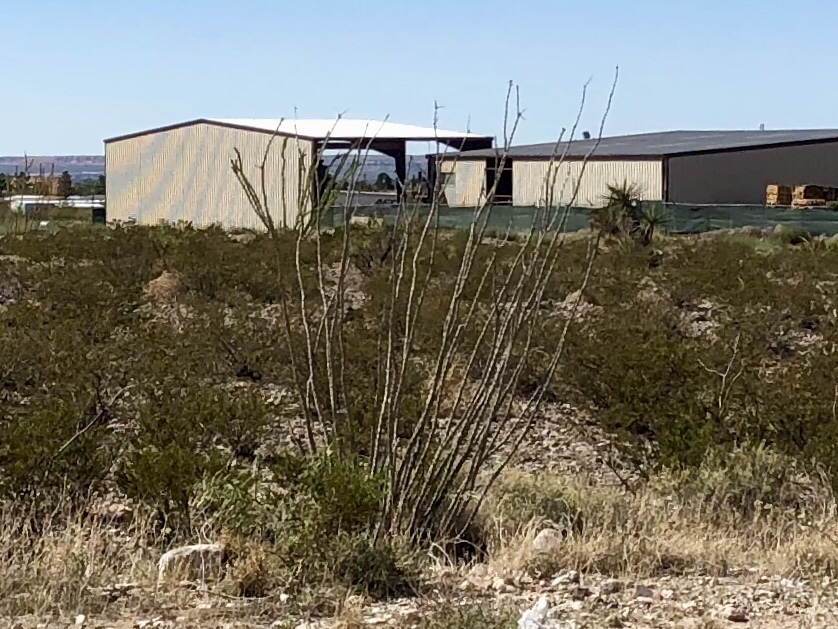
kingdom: Plantae
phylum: Tracheophyta
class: Magnoliopsida
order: Ericales
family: Fouquieriaceae
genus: Fouquieria
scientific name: Fouquieria splendens
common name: Vine-cactus
